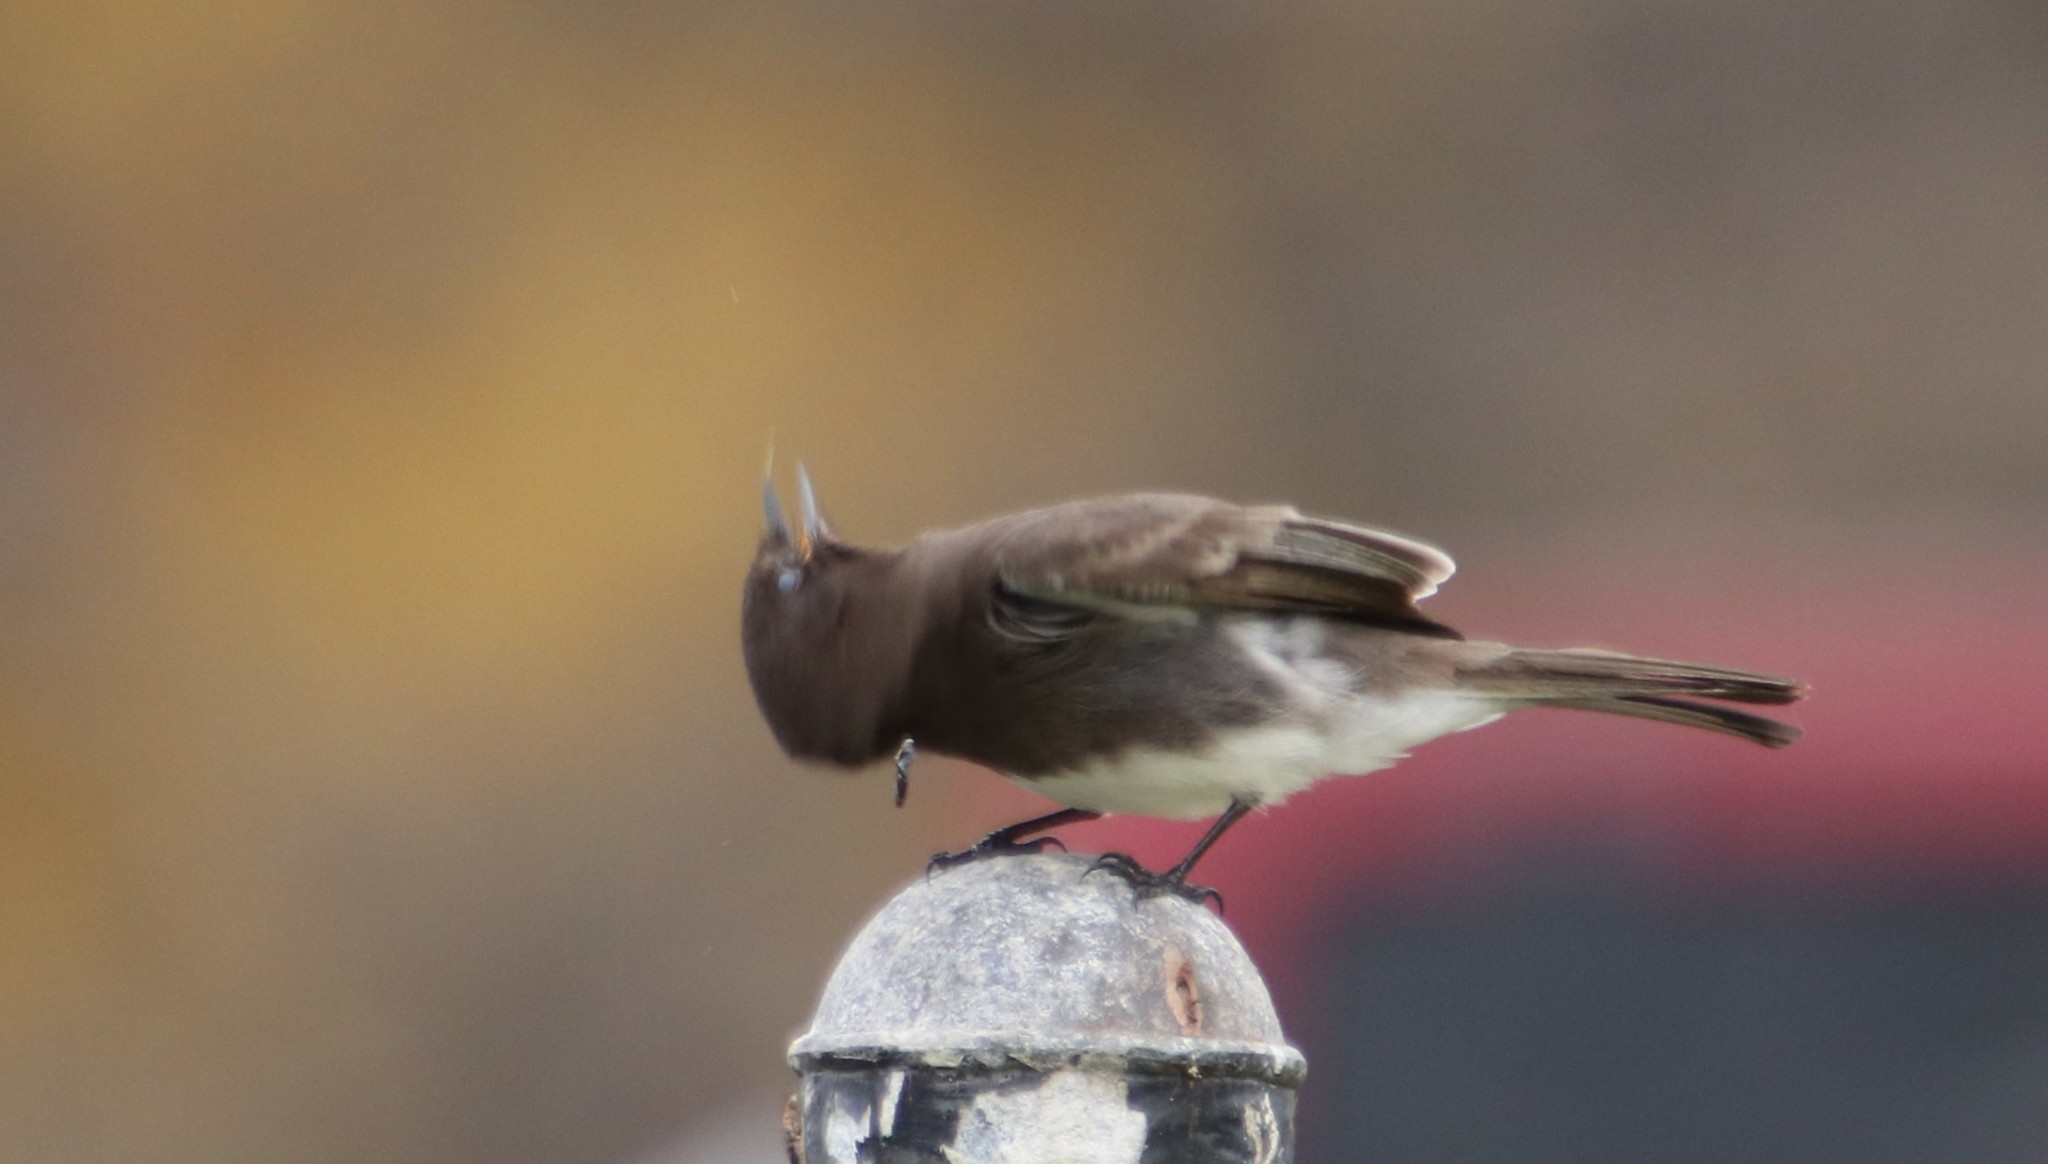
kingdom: Animalia
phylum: Chordata
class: Aves
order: Passeriformes
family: Tyrannidae
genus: Sayornis
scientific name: Sayornis nigricans
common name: Black phoebe
